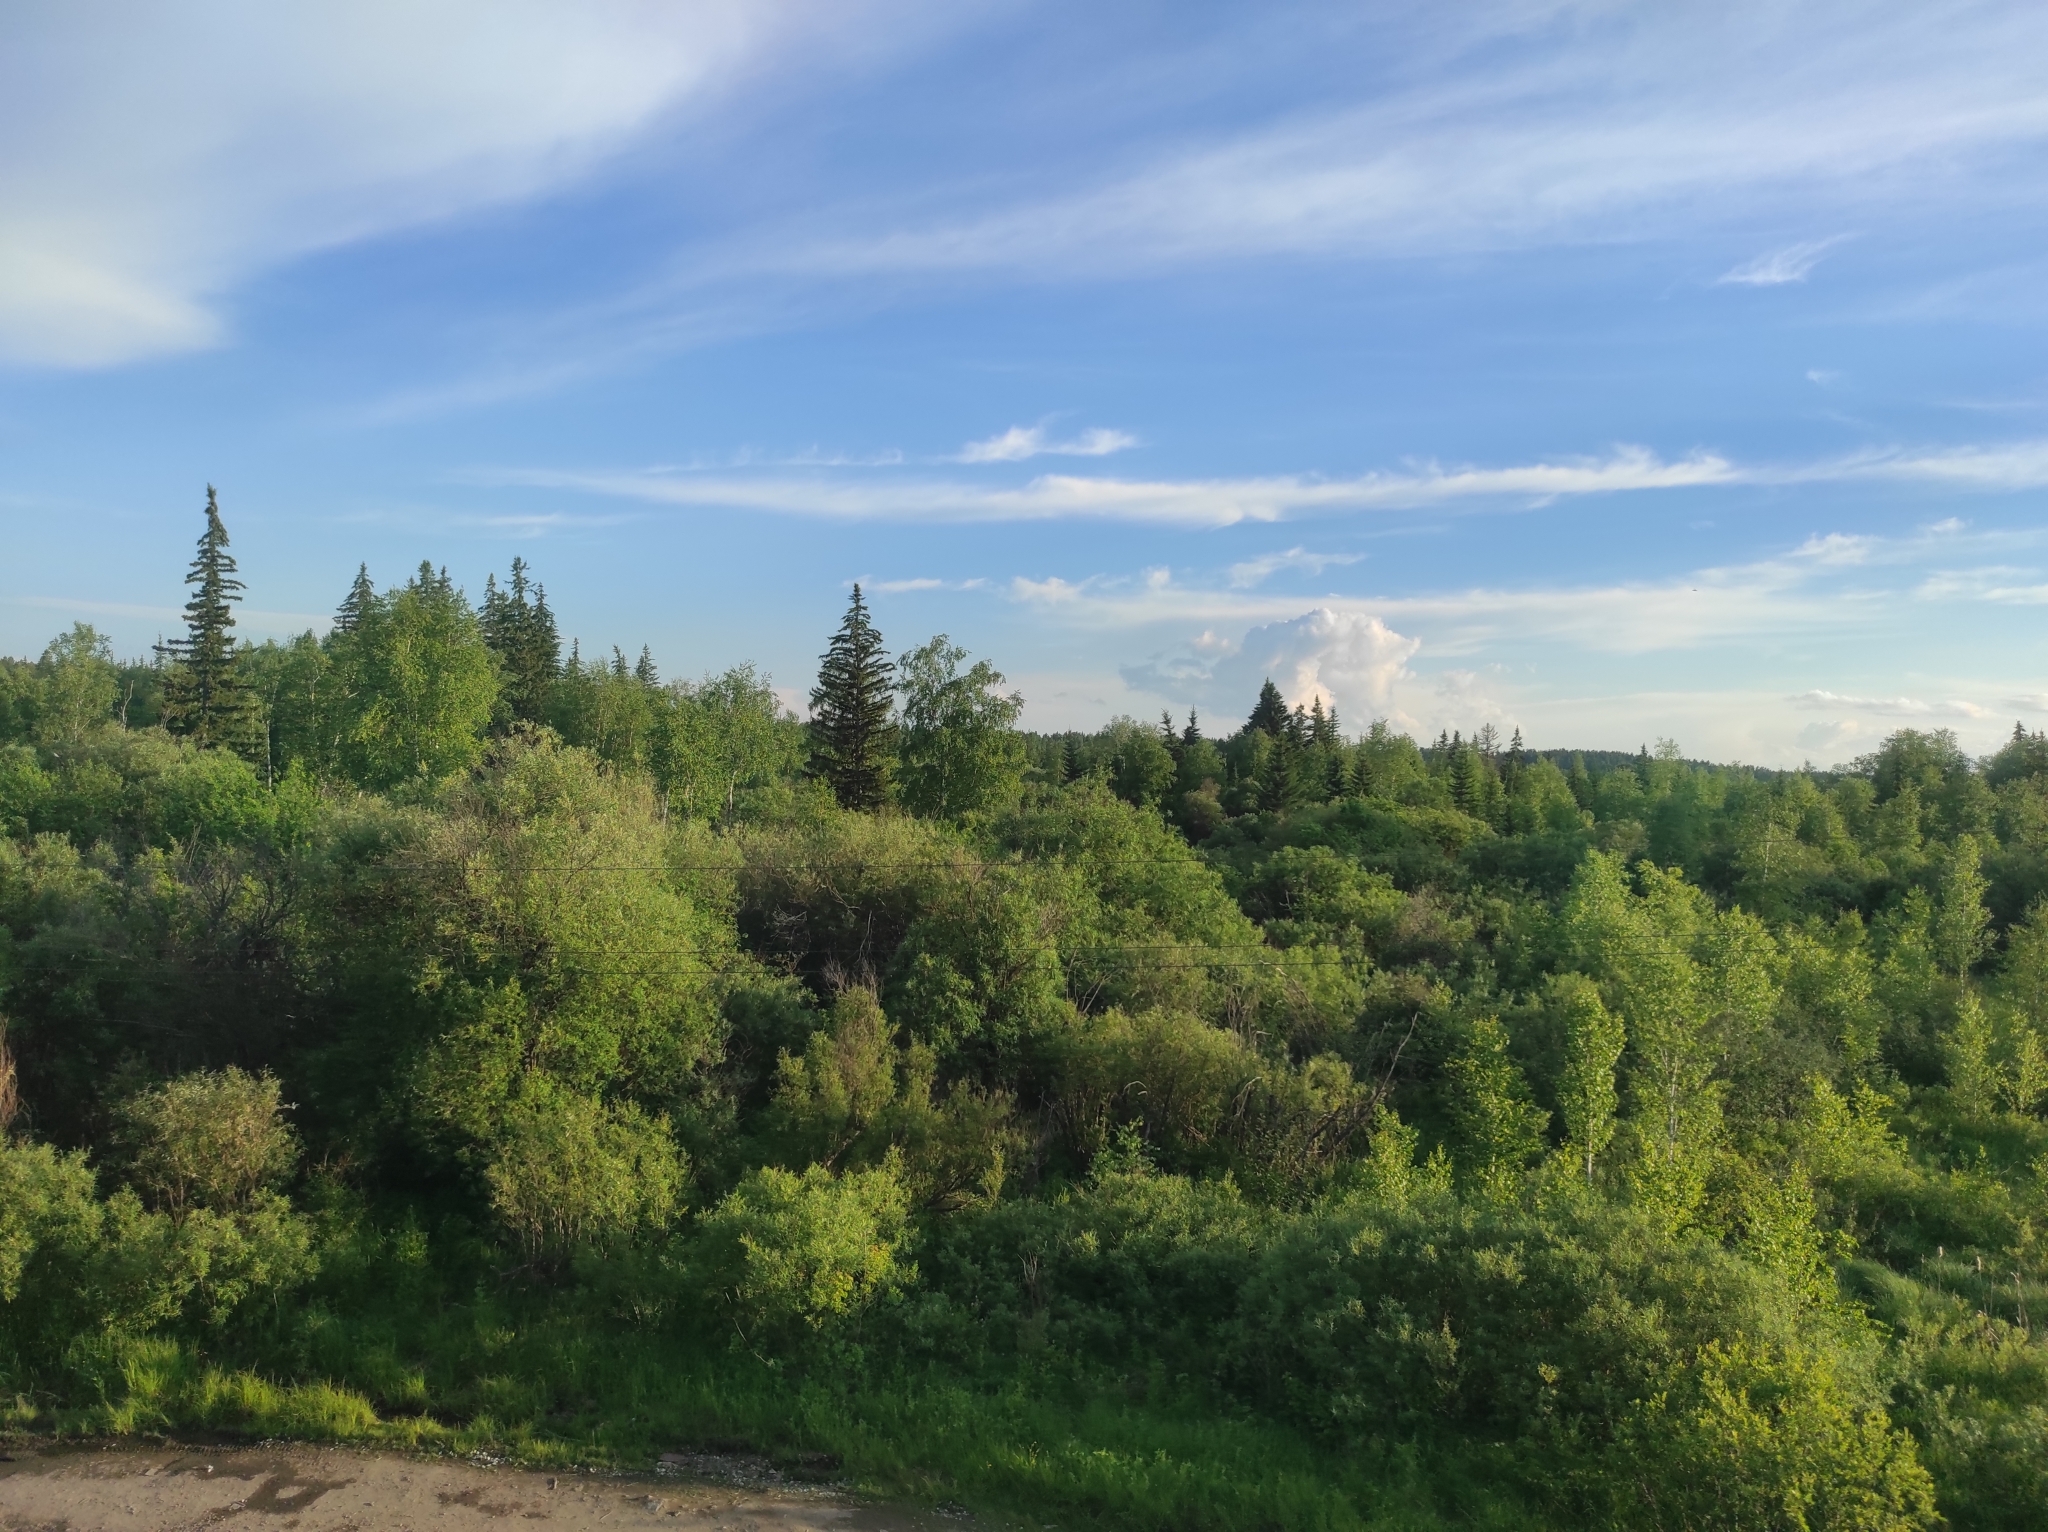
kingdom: Plantae
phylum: Tracheophyta
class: Pinopsida
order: Pinales
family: Pinaceae
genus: Picea
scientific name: Picea obovata
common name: Siberian spruce
